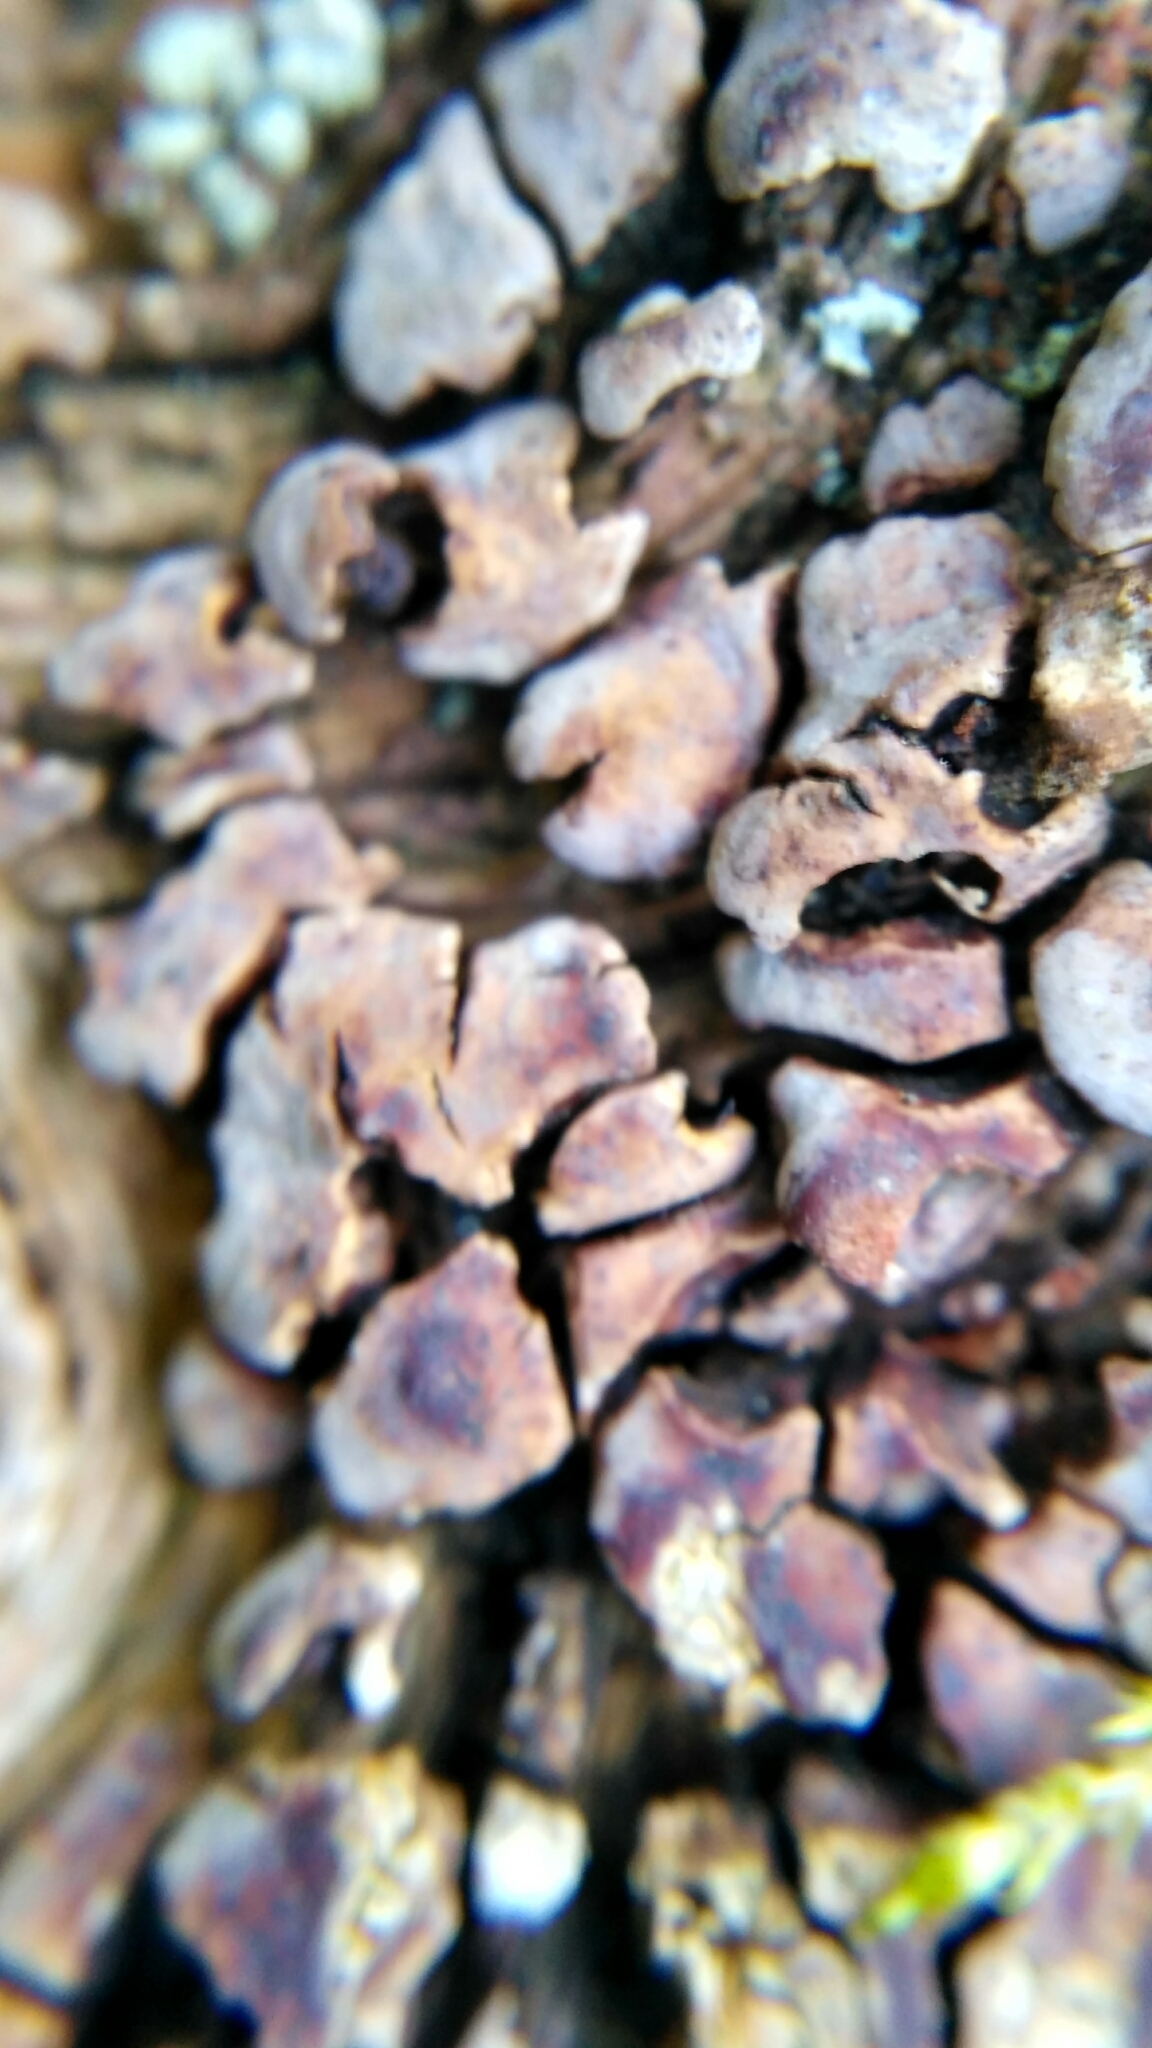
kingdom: Fungi
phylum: Basidiomycota
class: Agaricomycetes
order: Russulales
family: Stereaceae
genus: Xylobolus
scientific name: Xylobolus frustulatus
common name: Ceramic parchment
